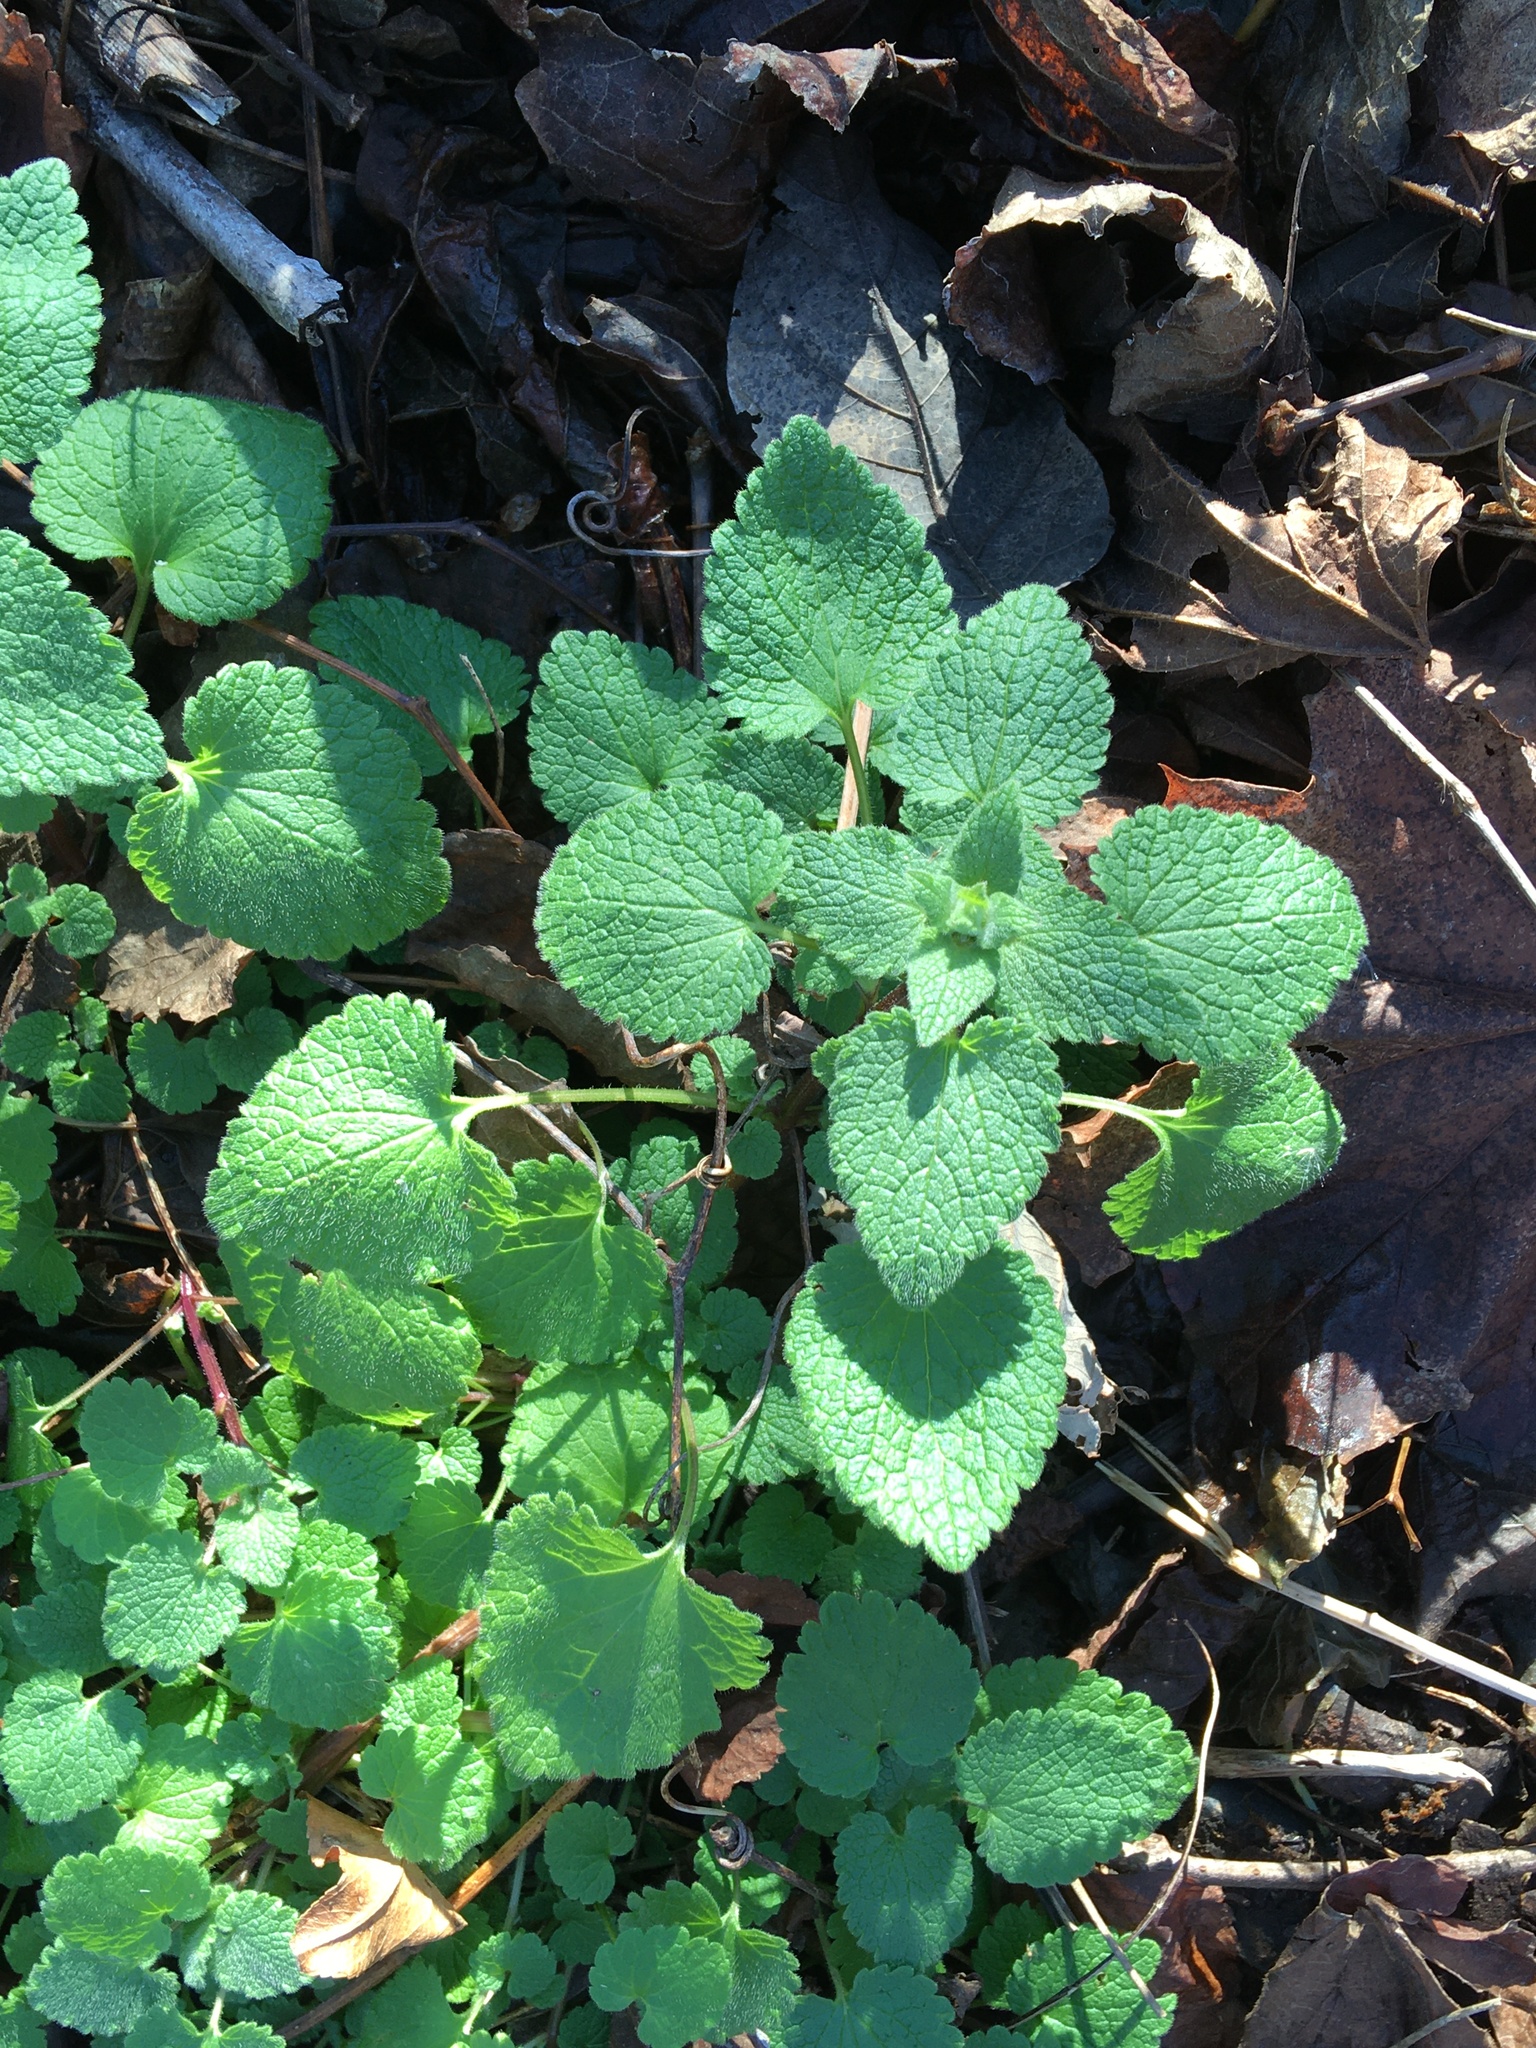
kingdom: Plantae
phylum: Tracheophyta
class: Magnoliopsida
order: Lamiales
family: Lamiaceae
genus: Lamium
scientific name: Lamium purpureum
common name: Red dead-nettle
